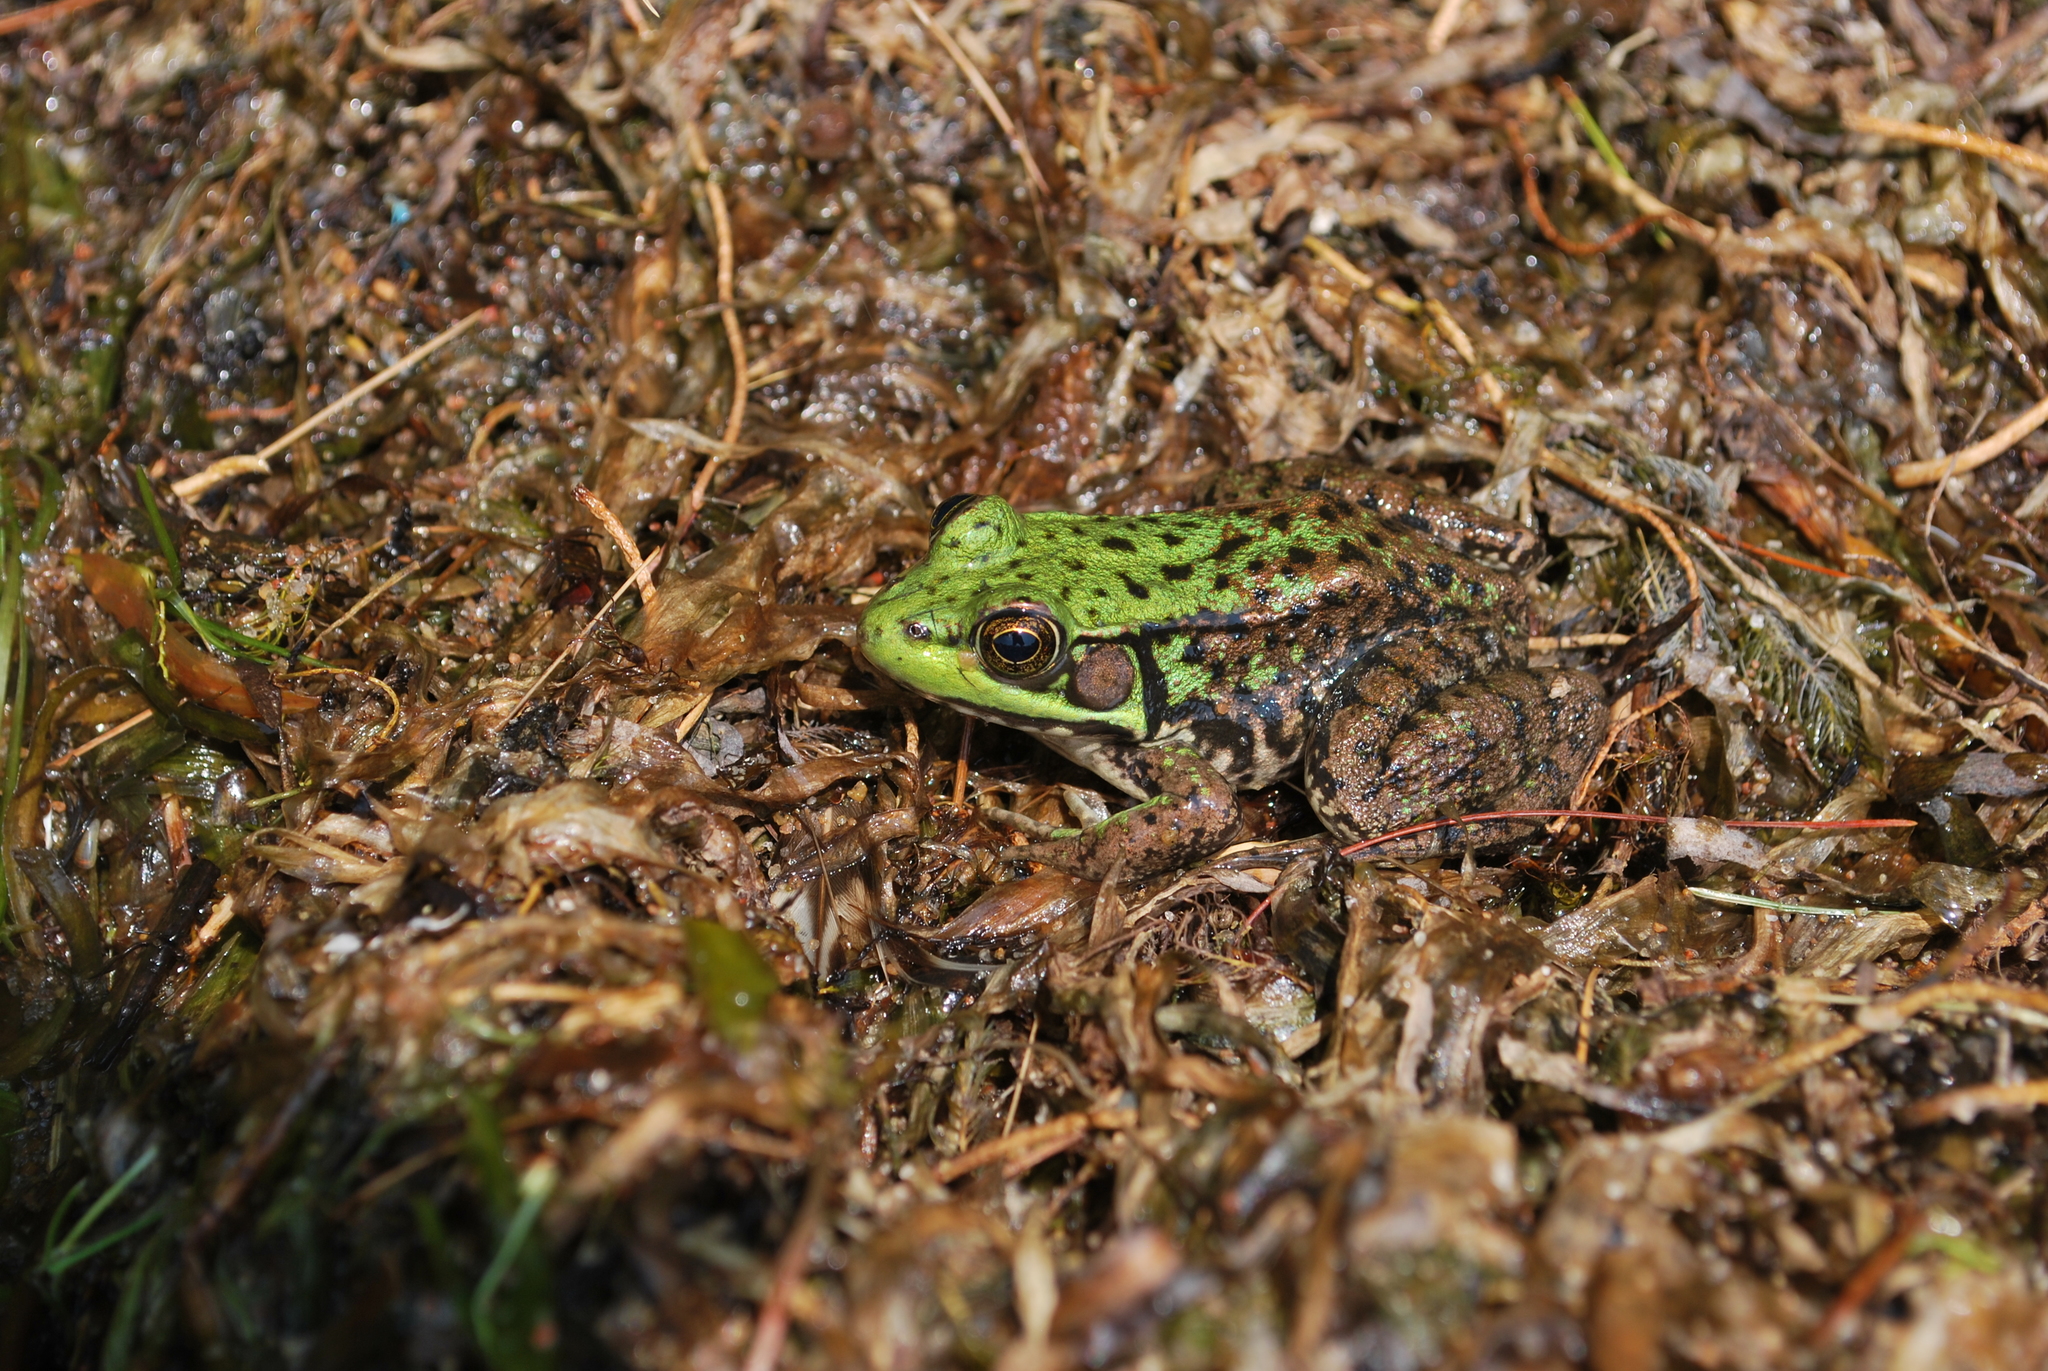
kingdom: Animalia
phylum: Chordata
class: Amphibia
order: Anura
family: Ranidae
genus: Lithobates
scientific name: Lithobates clamitans
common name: Green frog
